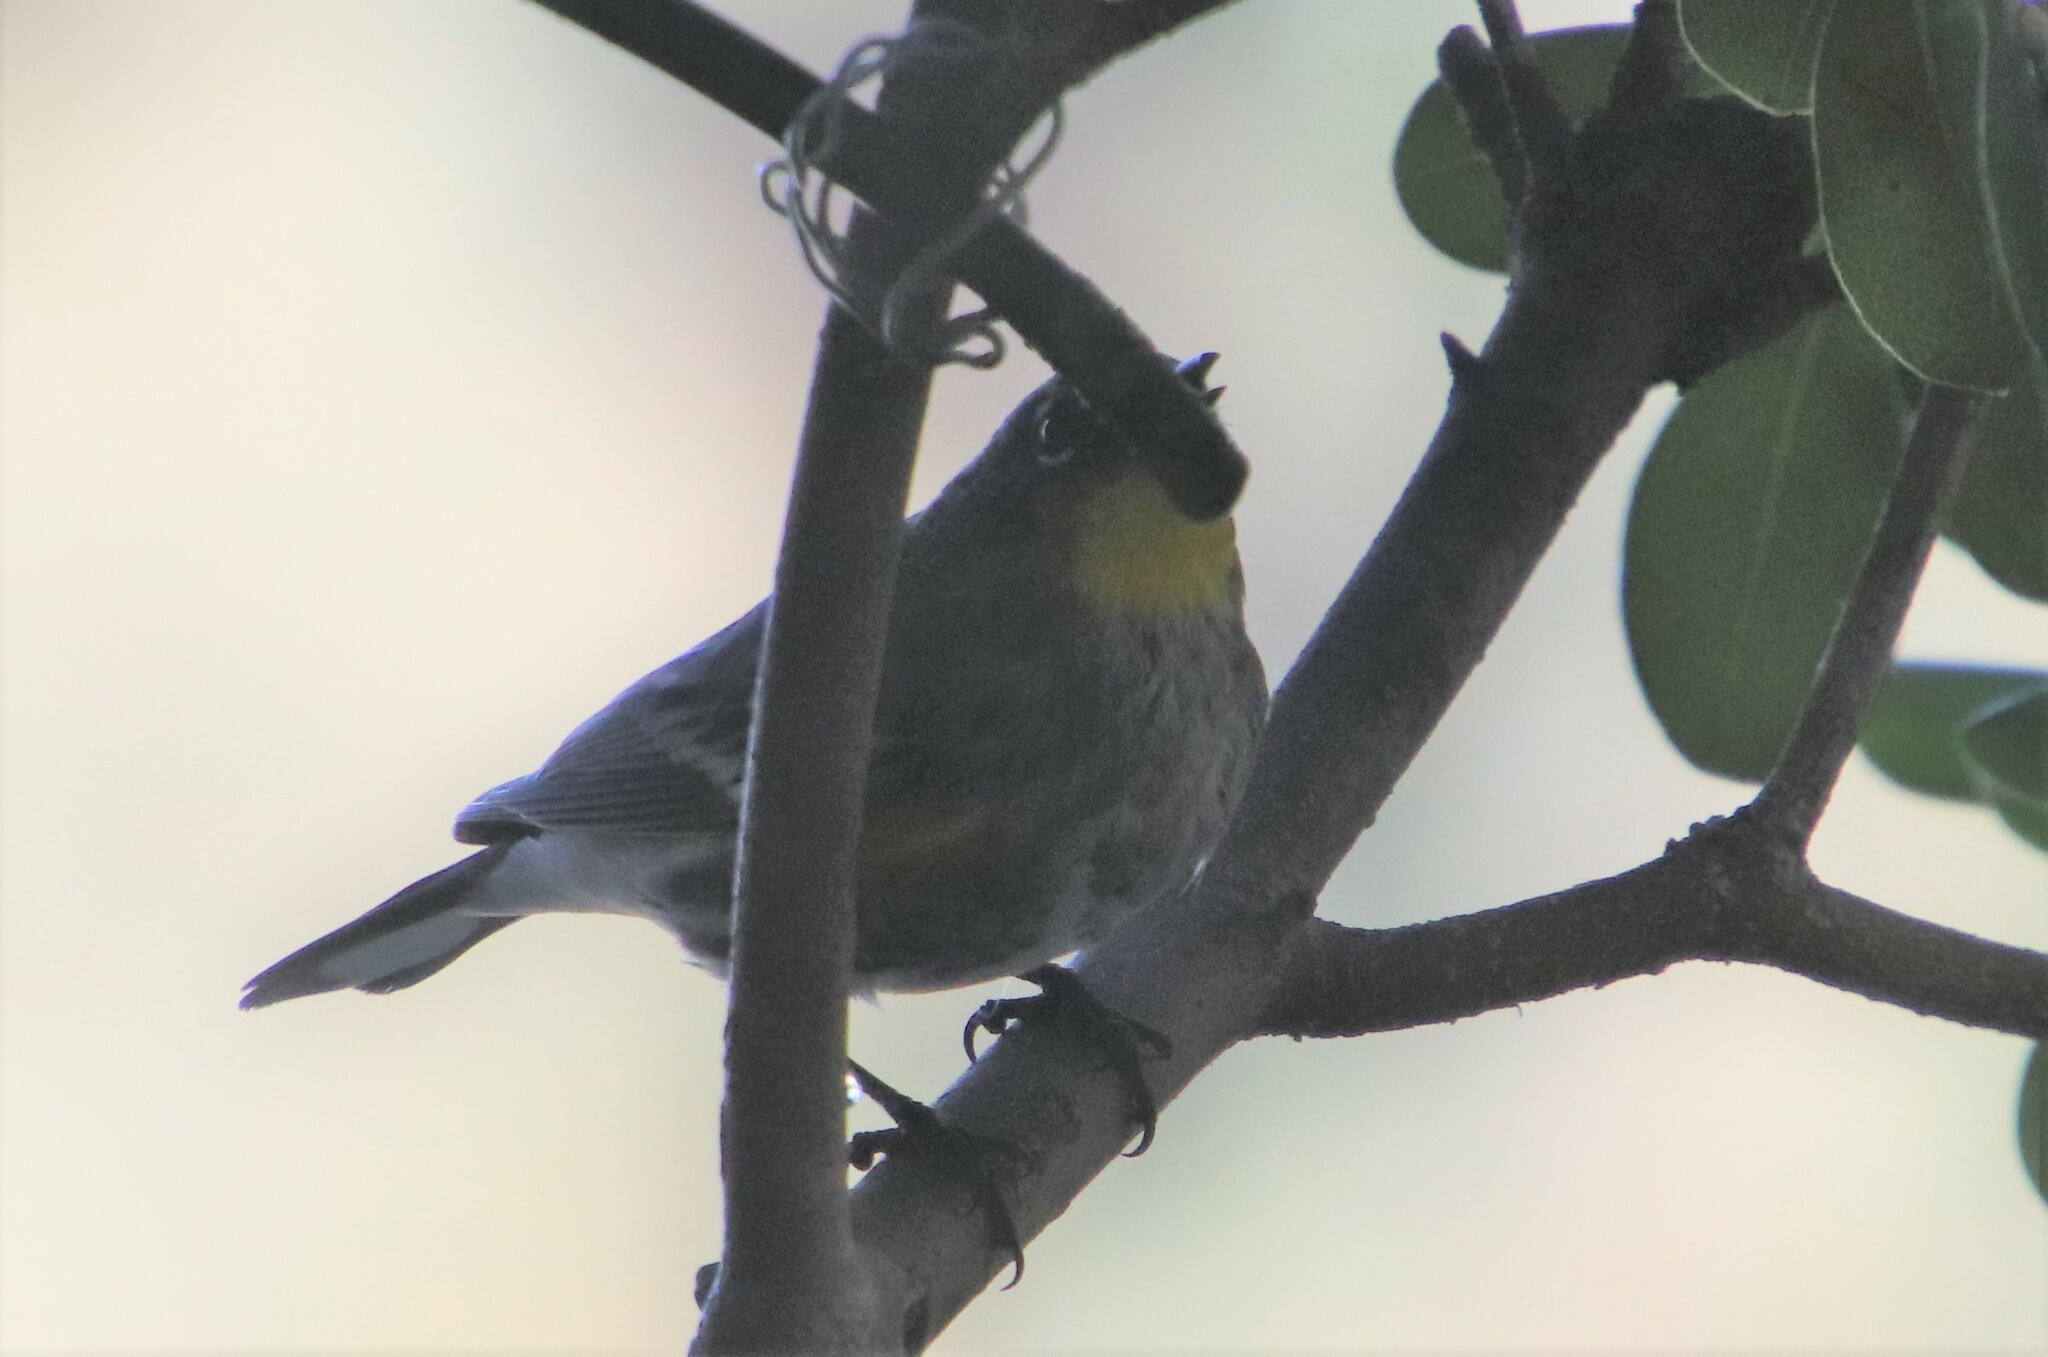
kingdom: Animalia
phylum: Chordata
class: Aves
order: Passeriformes
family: Parulidae
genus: Setophaga
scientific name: Setophaga coronata
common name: Myrtle warbler
